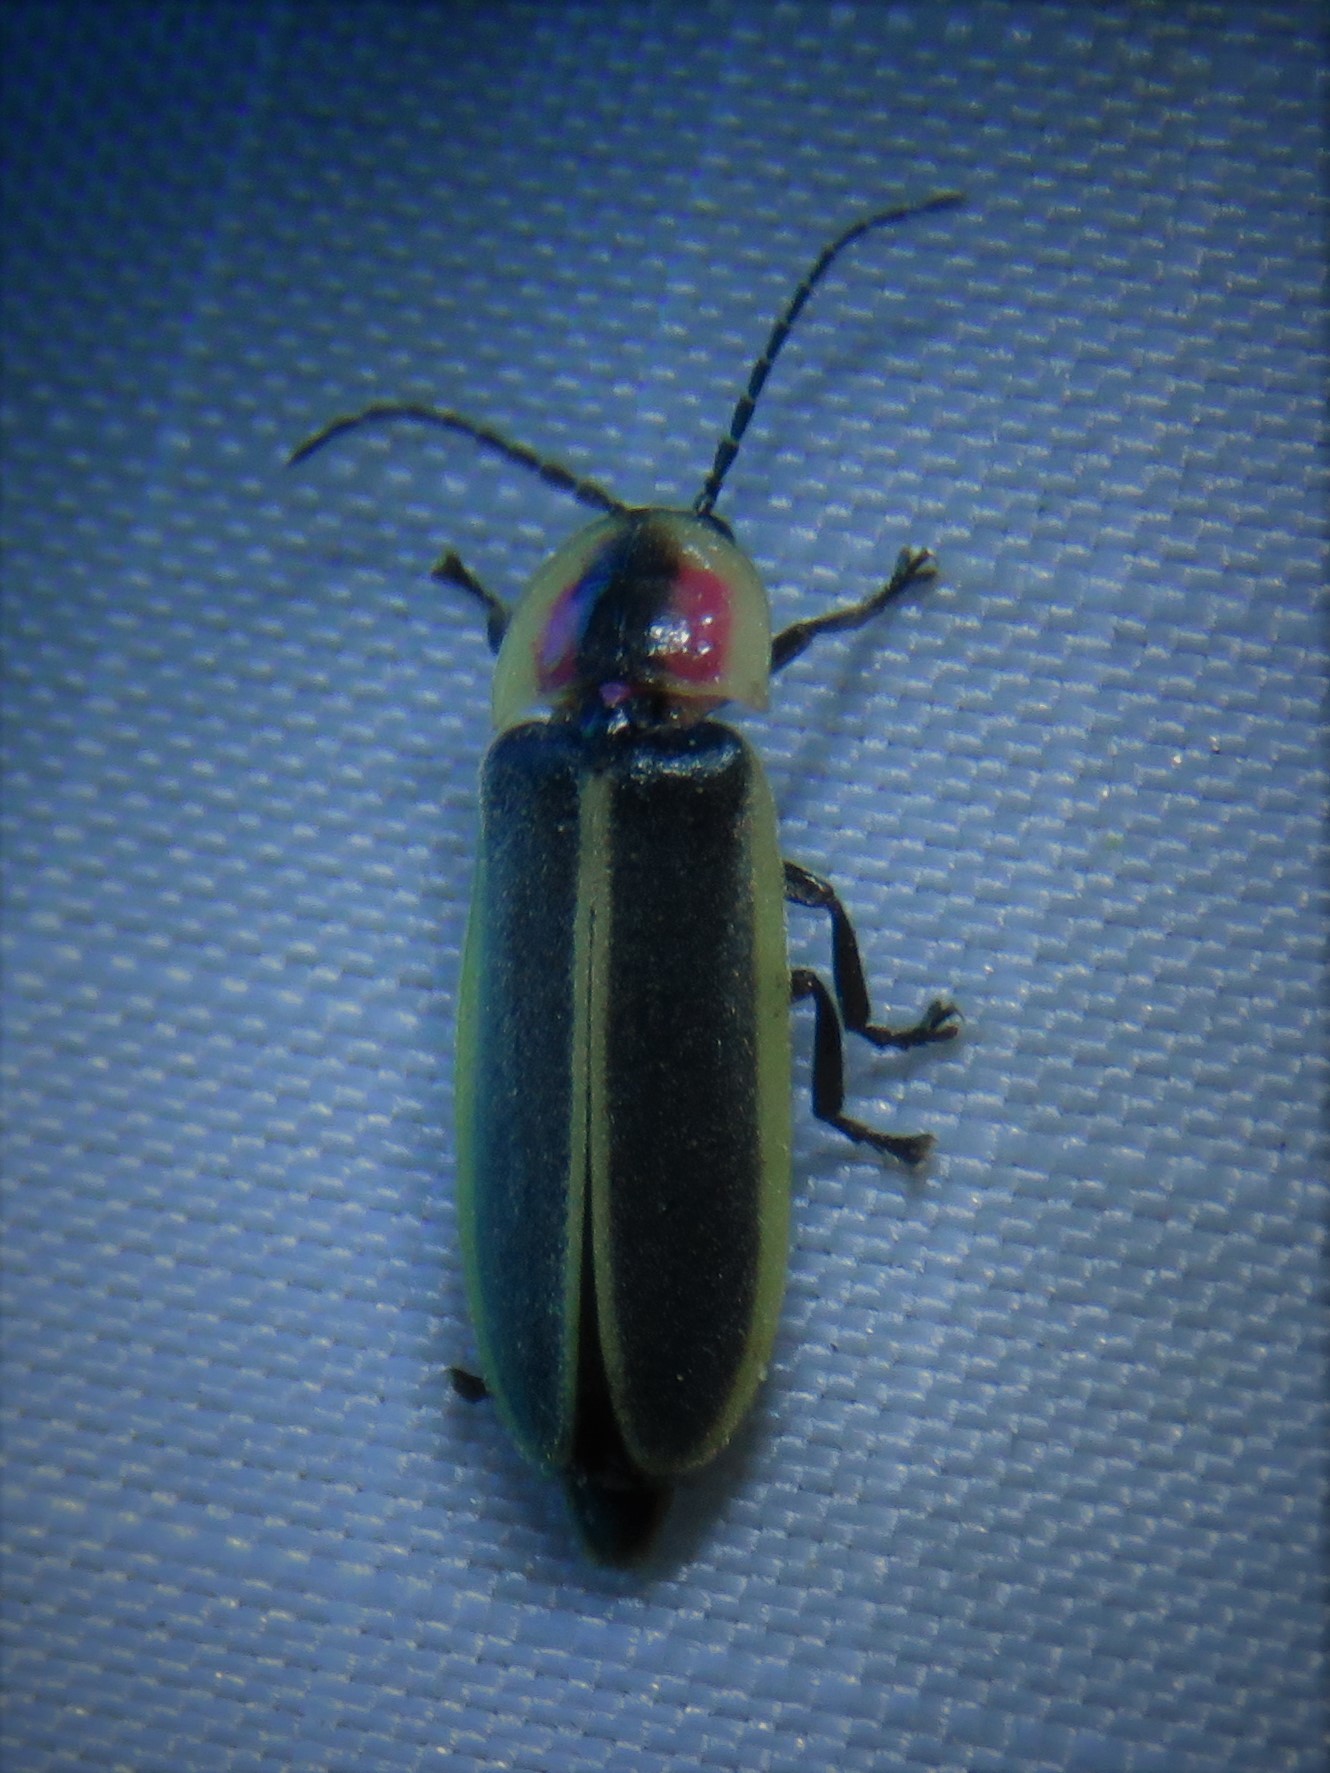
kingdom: Animalia
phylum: Arthropoda
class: Insecta
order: Coleoptera
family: Lampyridae
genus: Photinus
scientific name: Photinus pyralis
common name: Big dipper firefly
